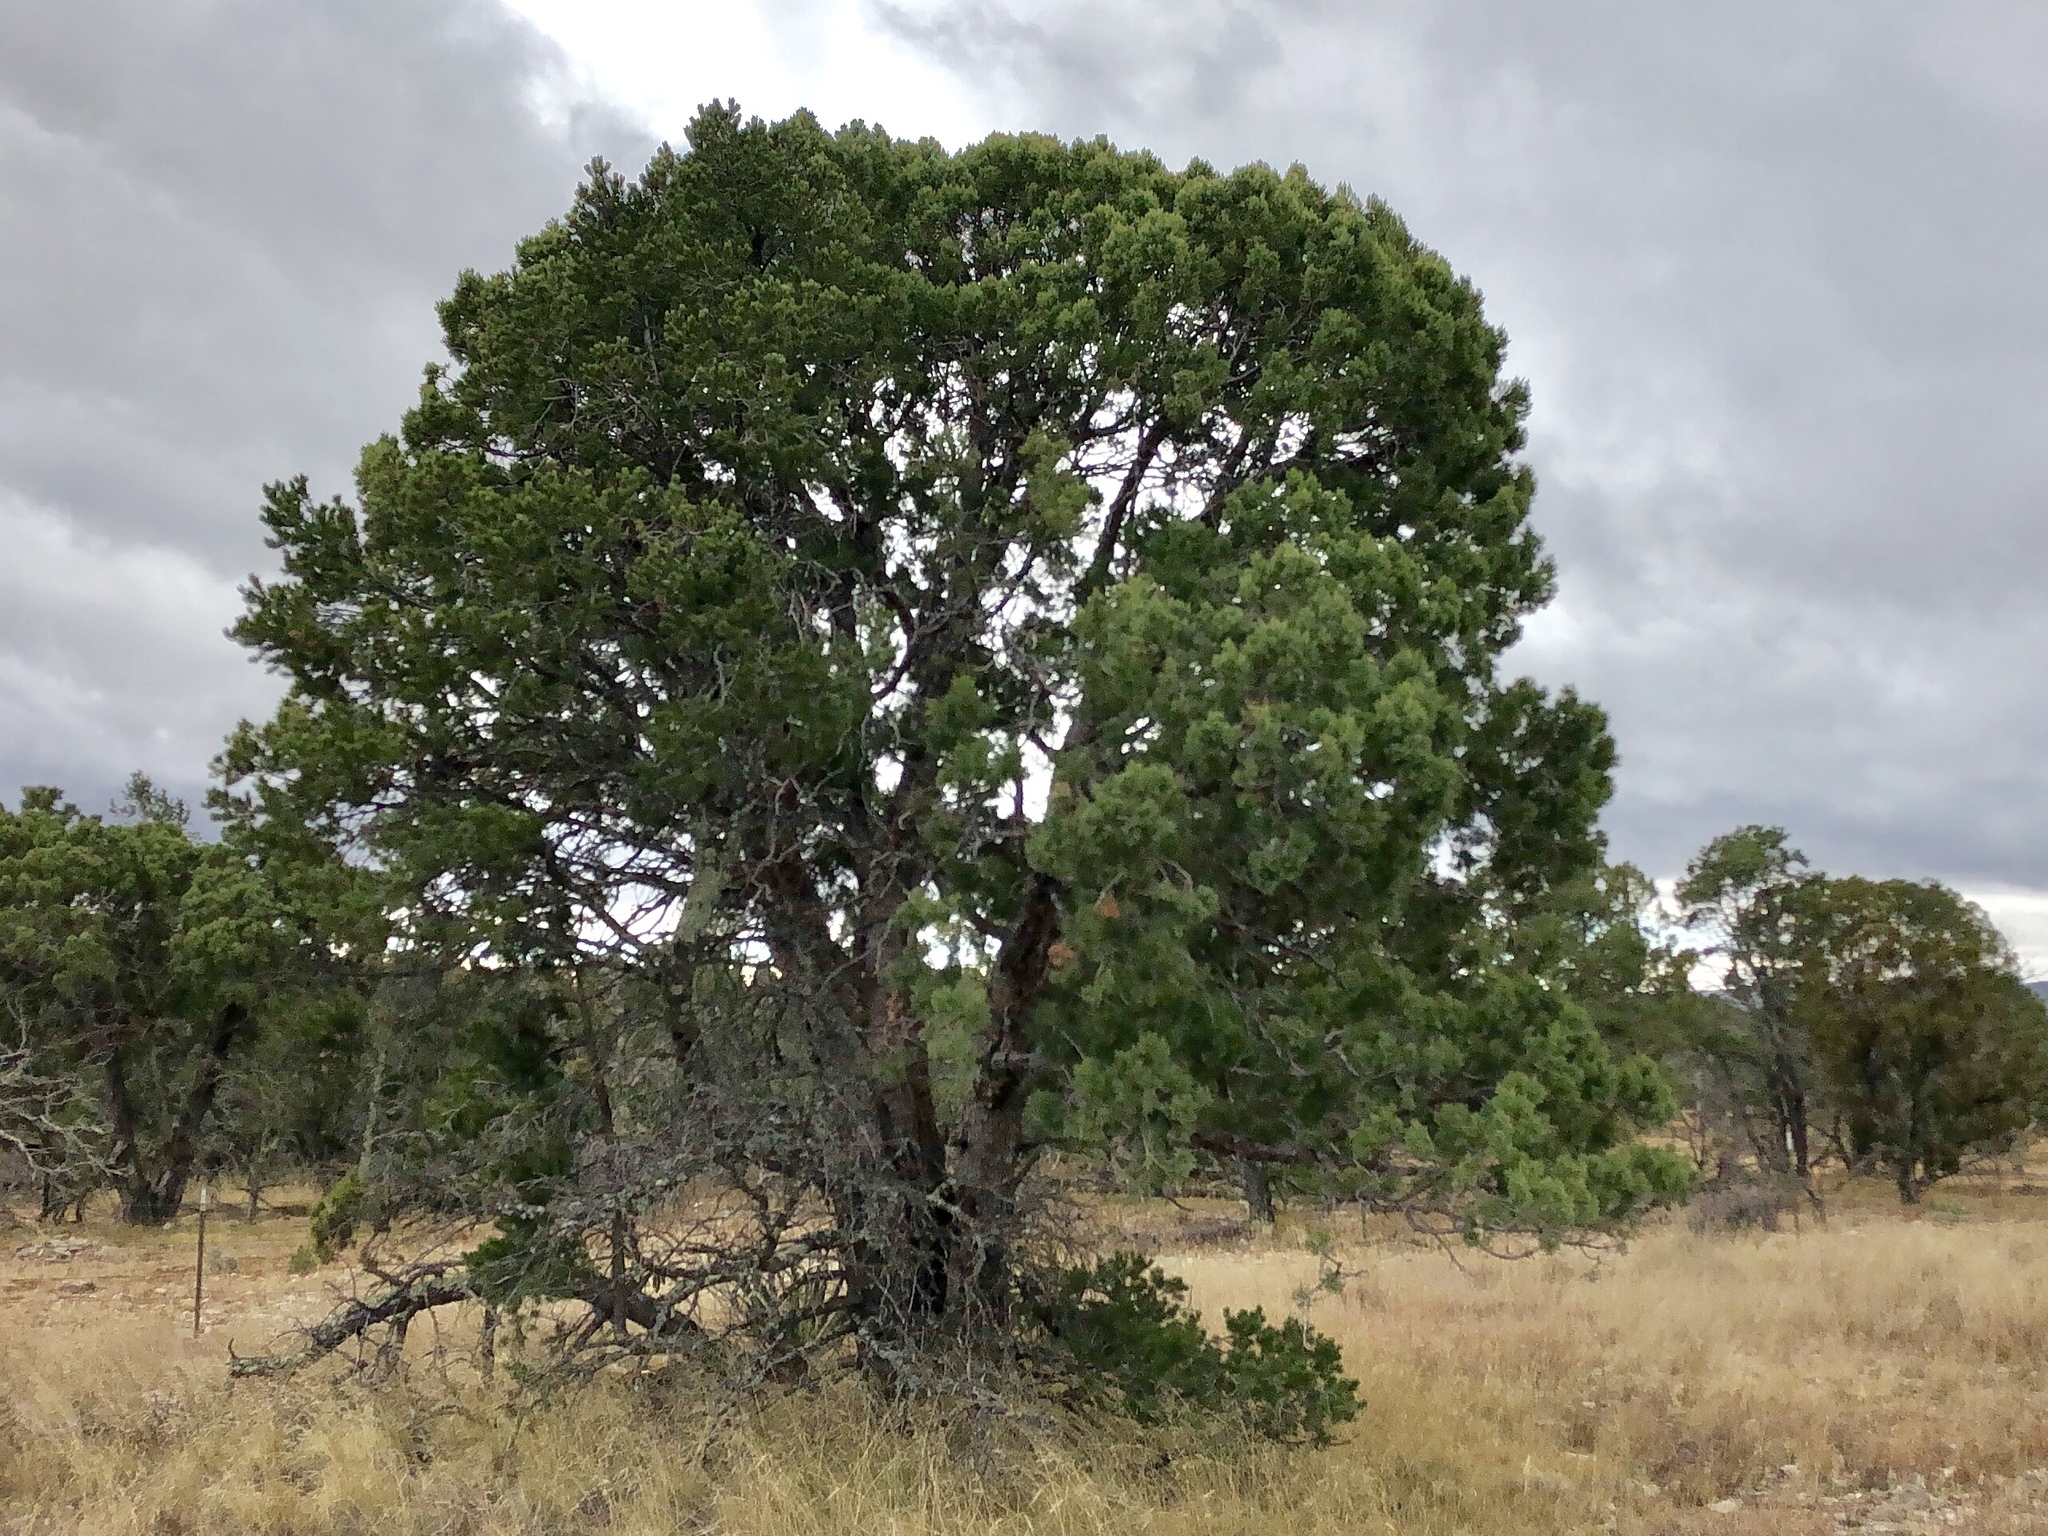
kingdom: Plantae
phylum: Tracheophyta
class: Pinopsida
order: Pinales
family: Cupressaceae
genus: Juniperus
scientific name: Juniperus deppeana
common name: Alligator juniper
